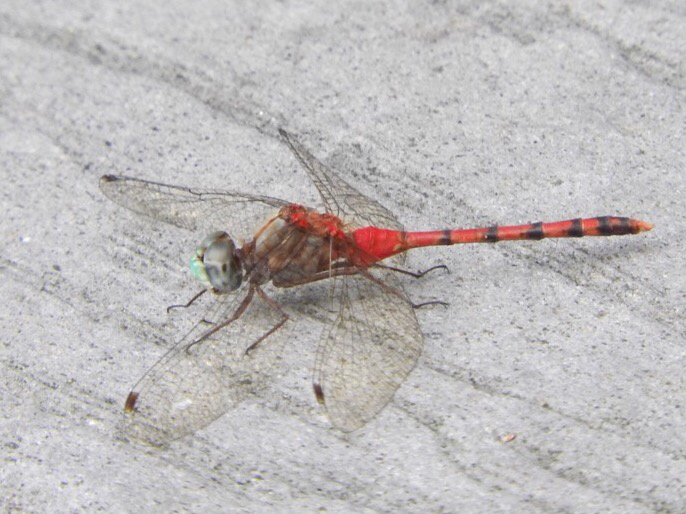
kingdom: Animalia
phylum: Arthropoda
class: Insecta
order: Odonata
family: Libellulidae
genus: Sympetrum
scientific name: Sympetrum ambiguum
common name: Blue-faced meadowhawk
